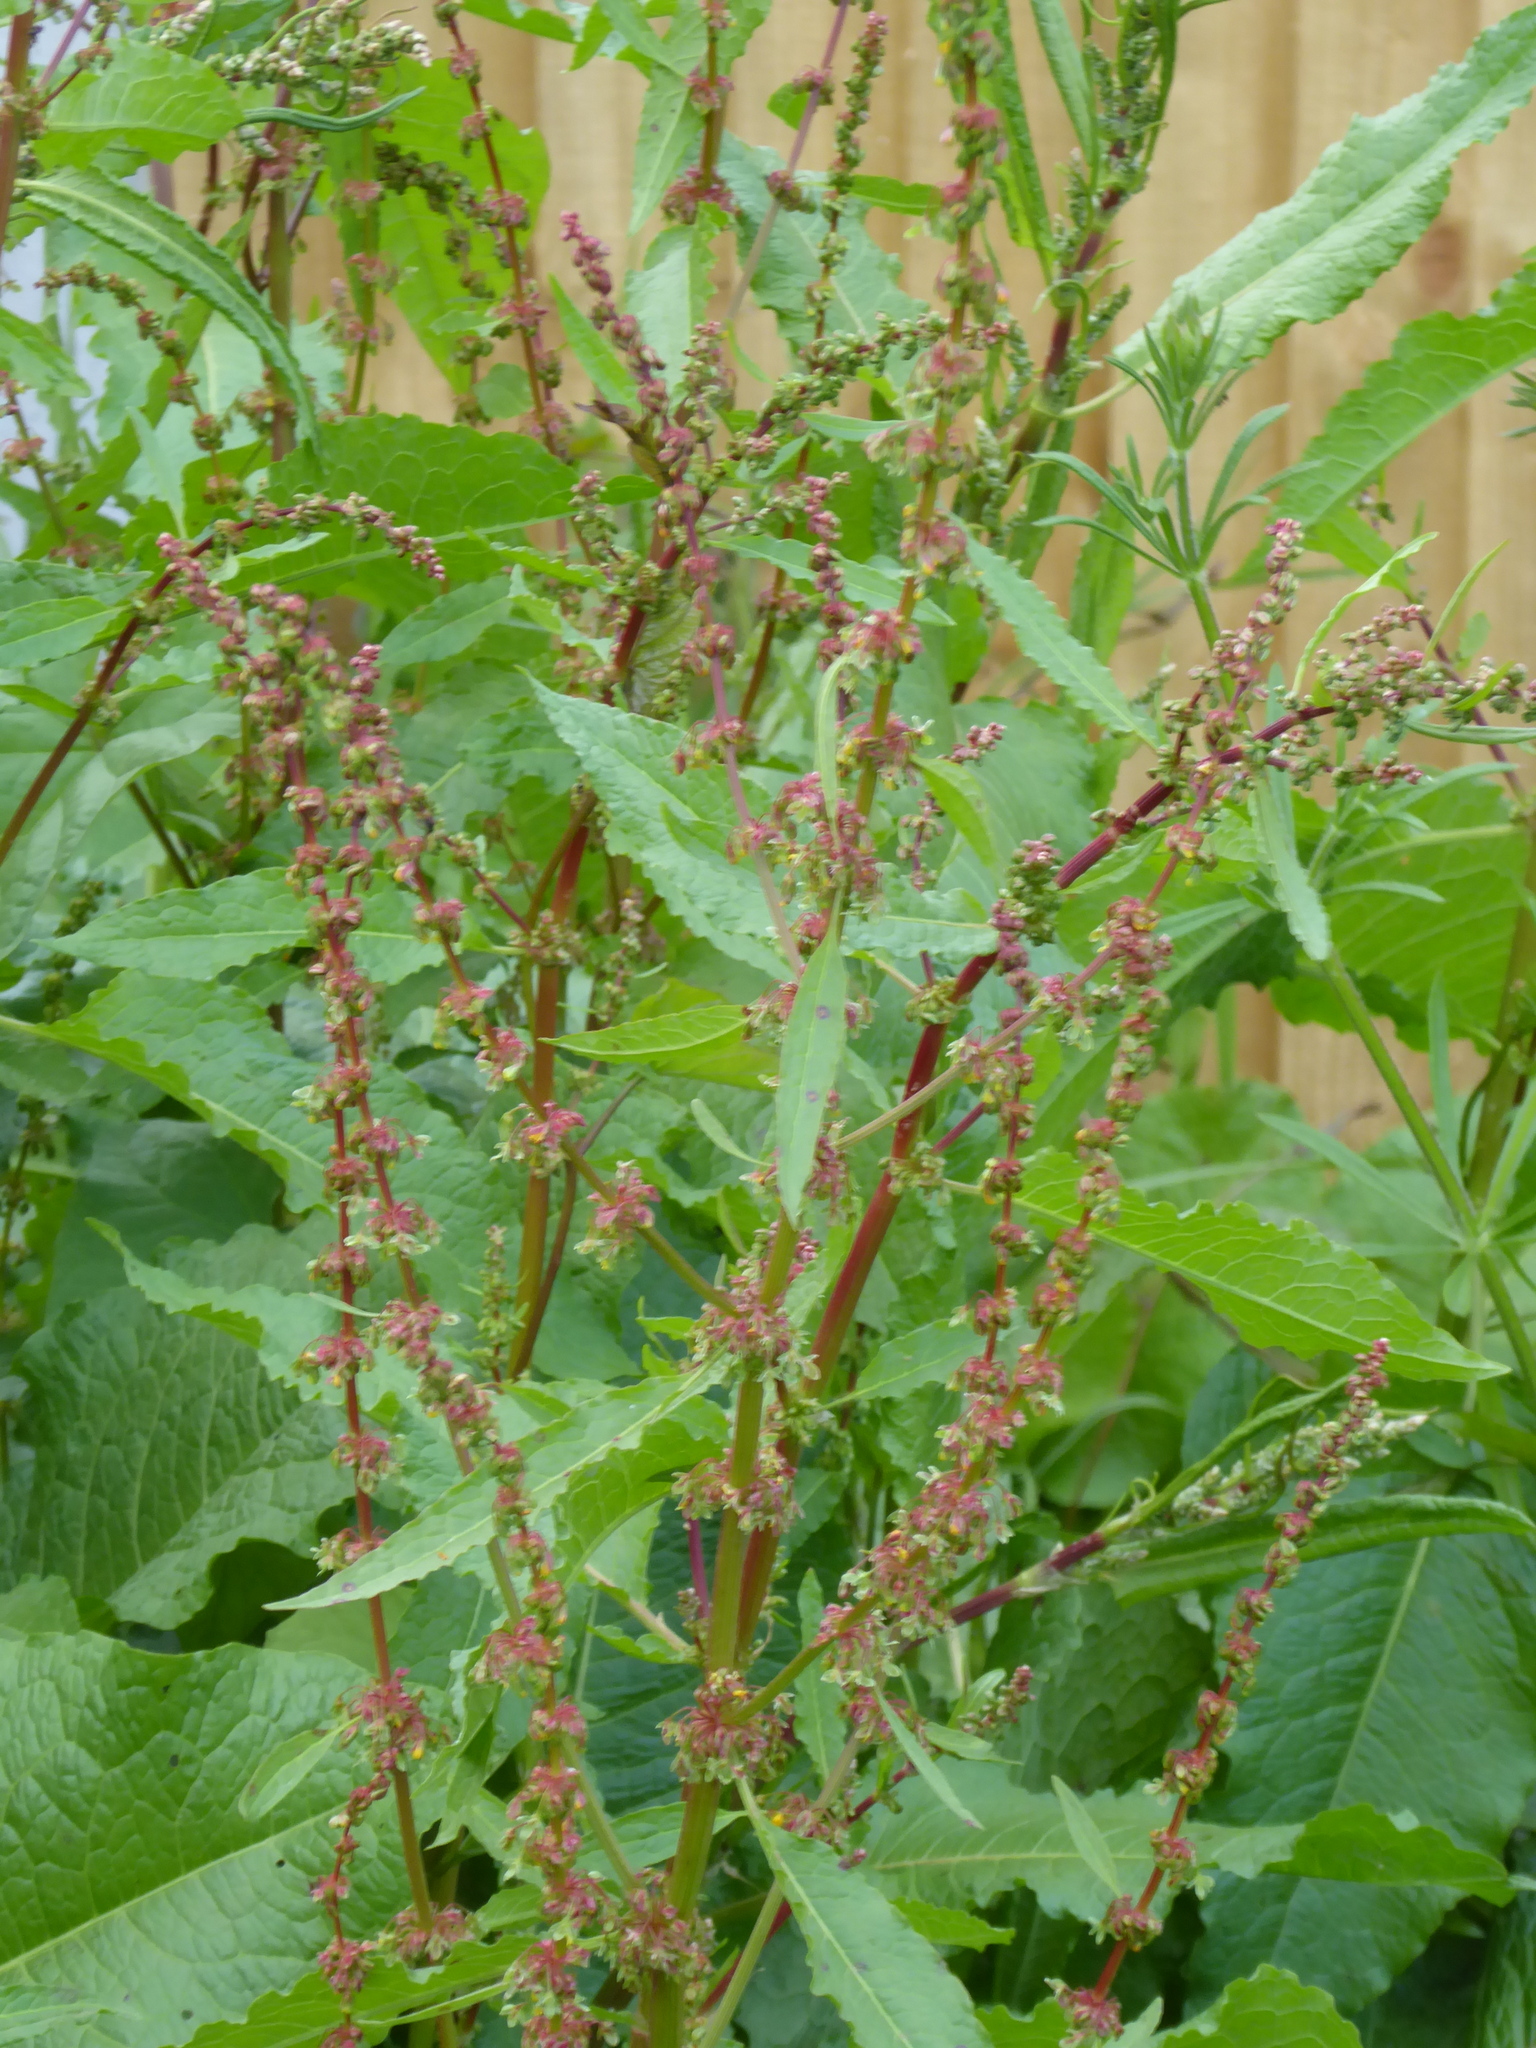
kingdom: Plantae
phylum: Tracheophyta
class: Magnoliopsida
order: Caryophyllales
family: Polygonaceae
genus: Rumex
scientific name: Rumex obtusifolius
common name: Bitter dock
